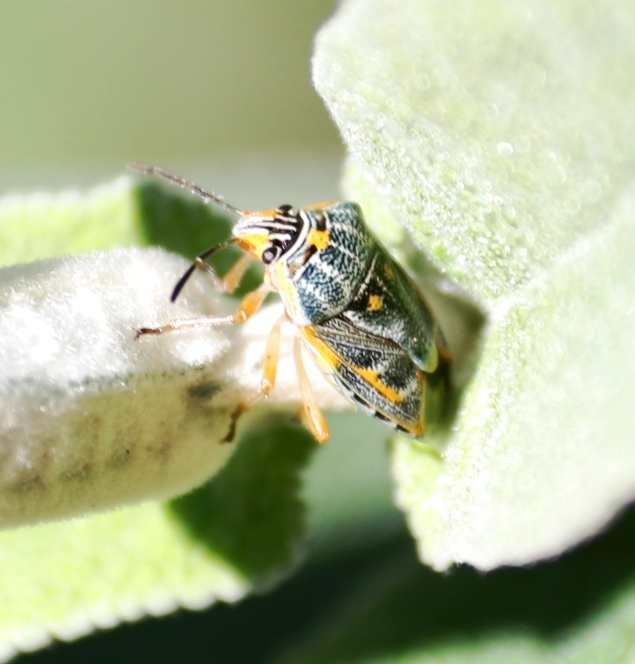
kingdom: Animalia
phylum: Arthropoda
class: Insecta
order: Hemiptera
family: Pentatomidae
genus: Antestiopsis
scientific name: Antestiopsis thunbergii
